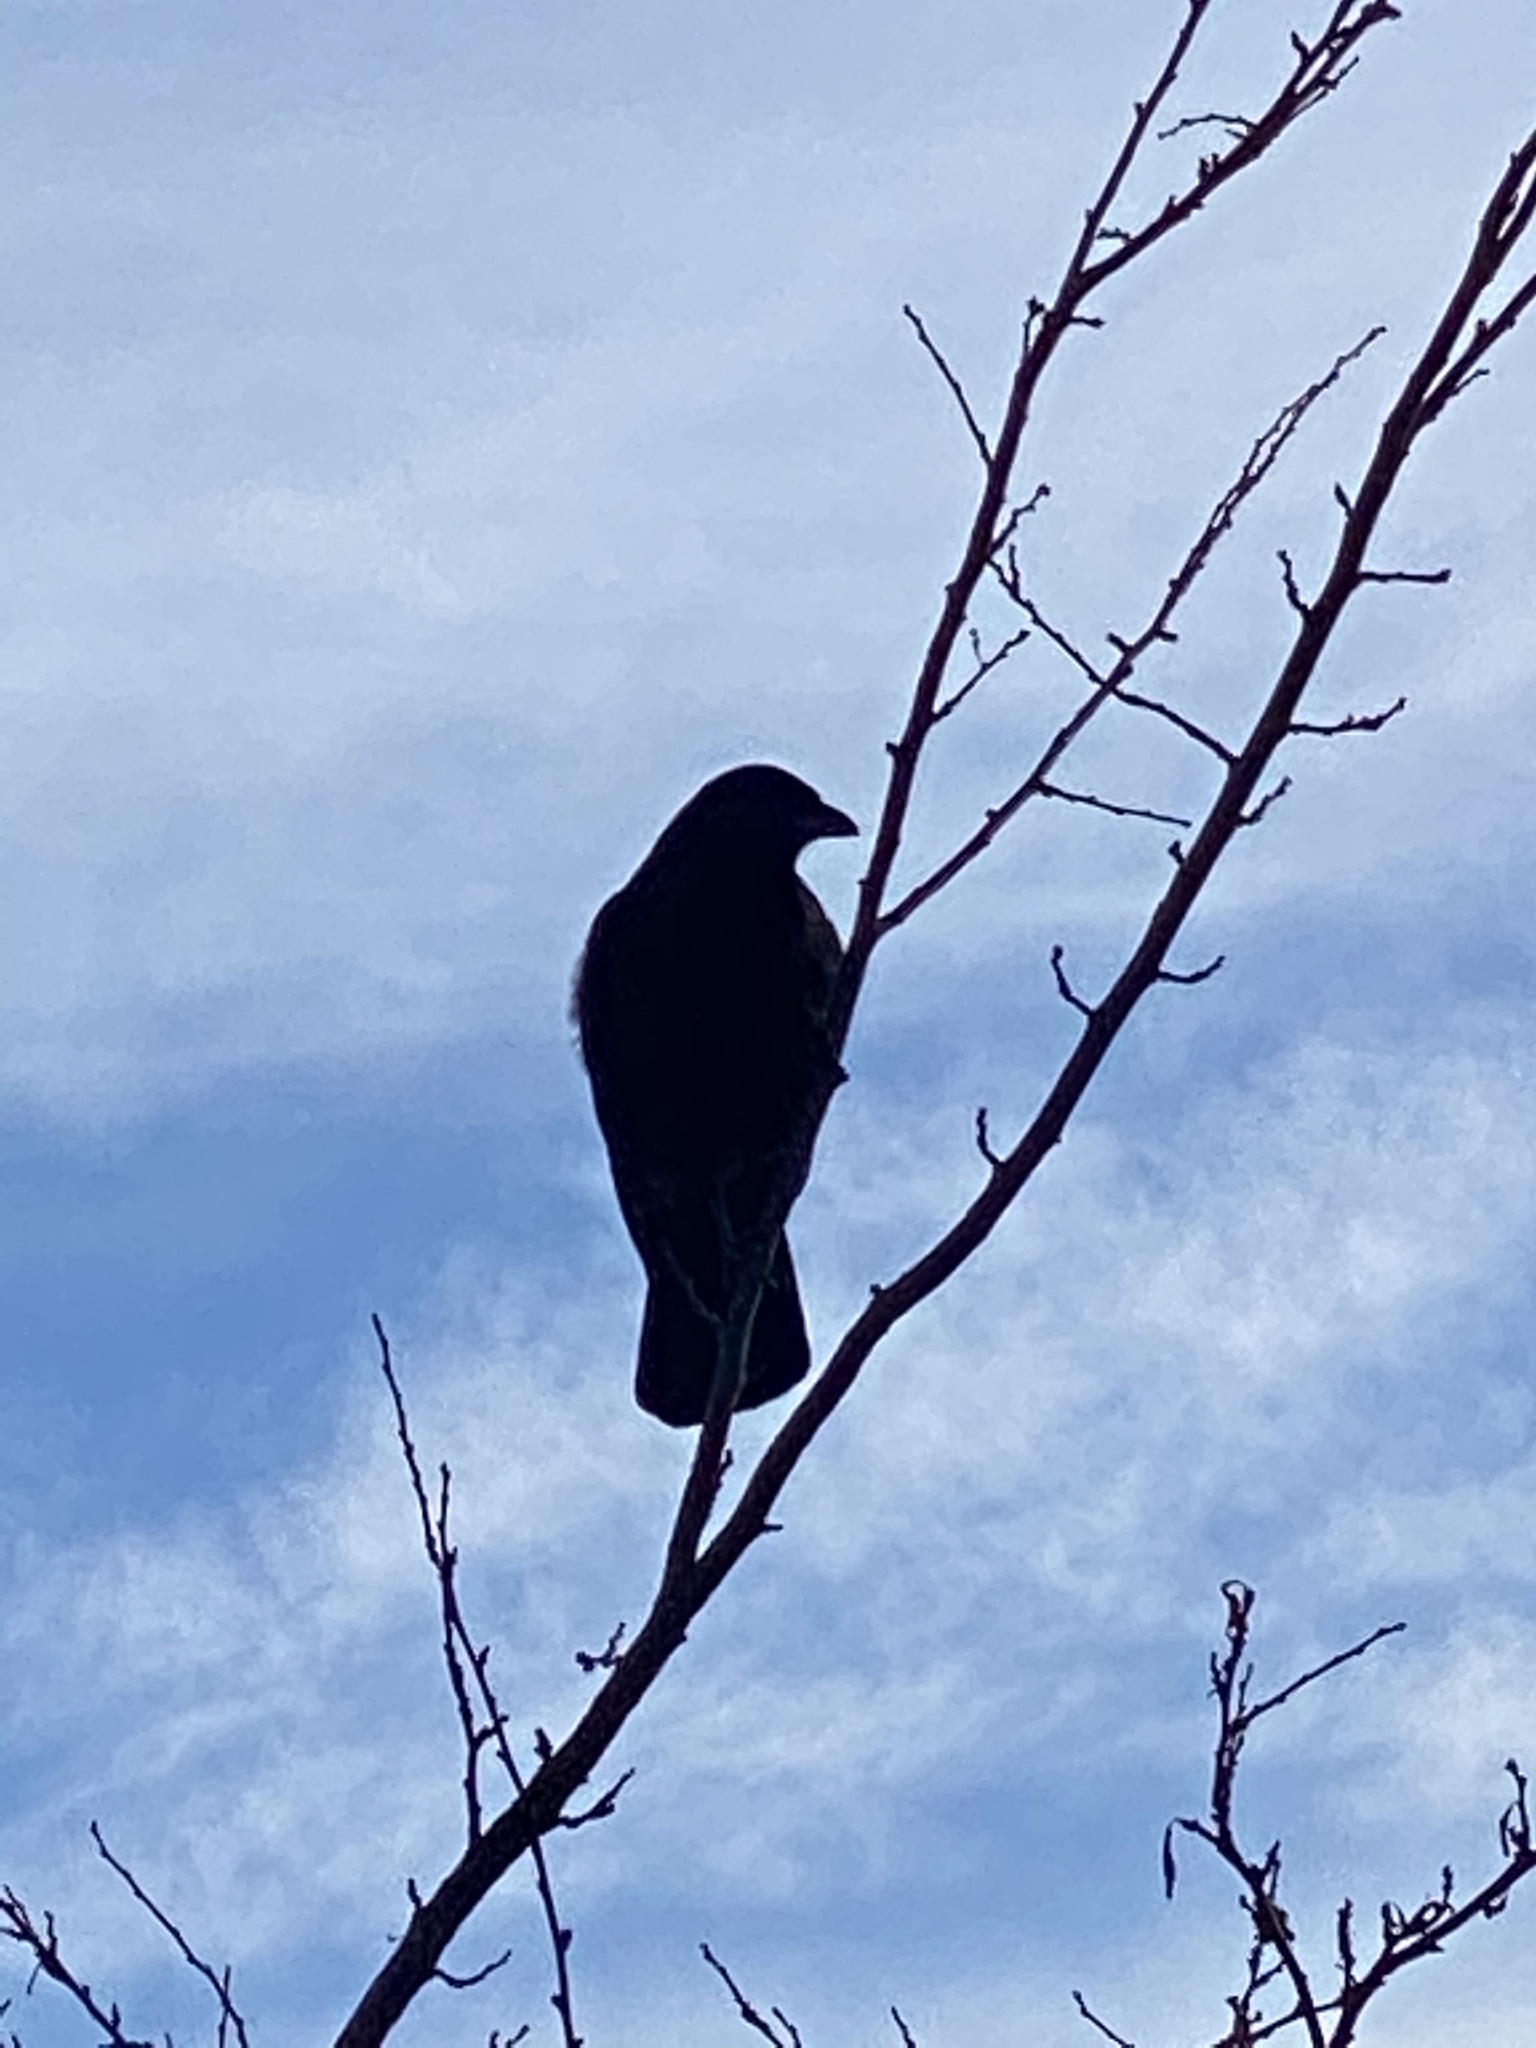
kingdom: Animalia
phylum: Chordata
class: Aves
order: Passeriformes
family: Corvidae
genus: Corvus
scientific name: Corvus brachyrhynchos
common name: American crow
